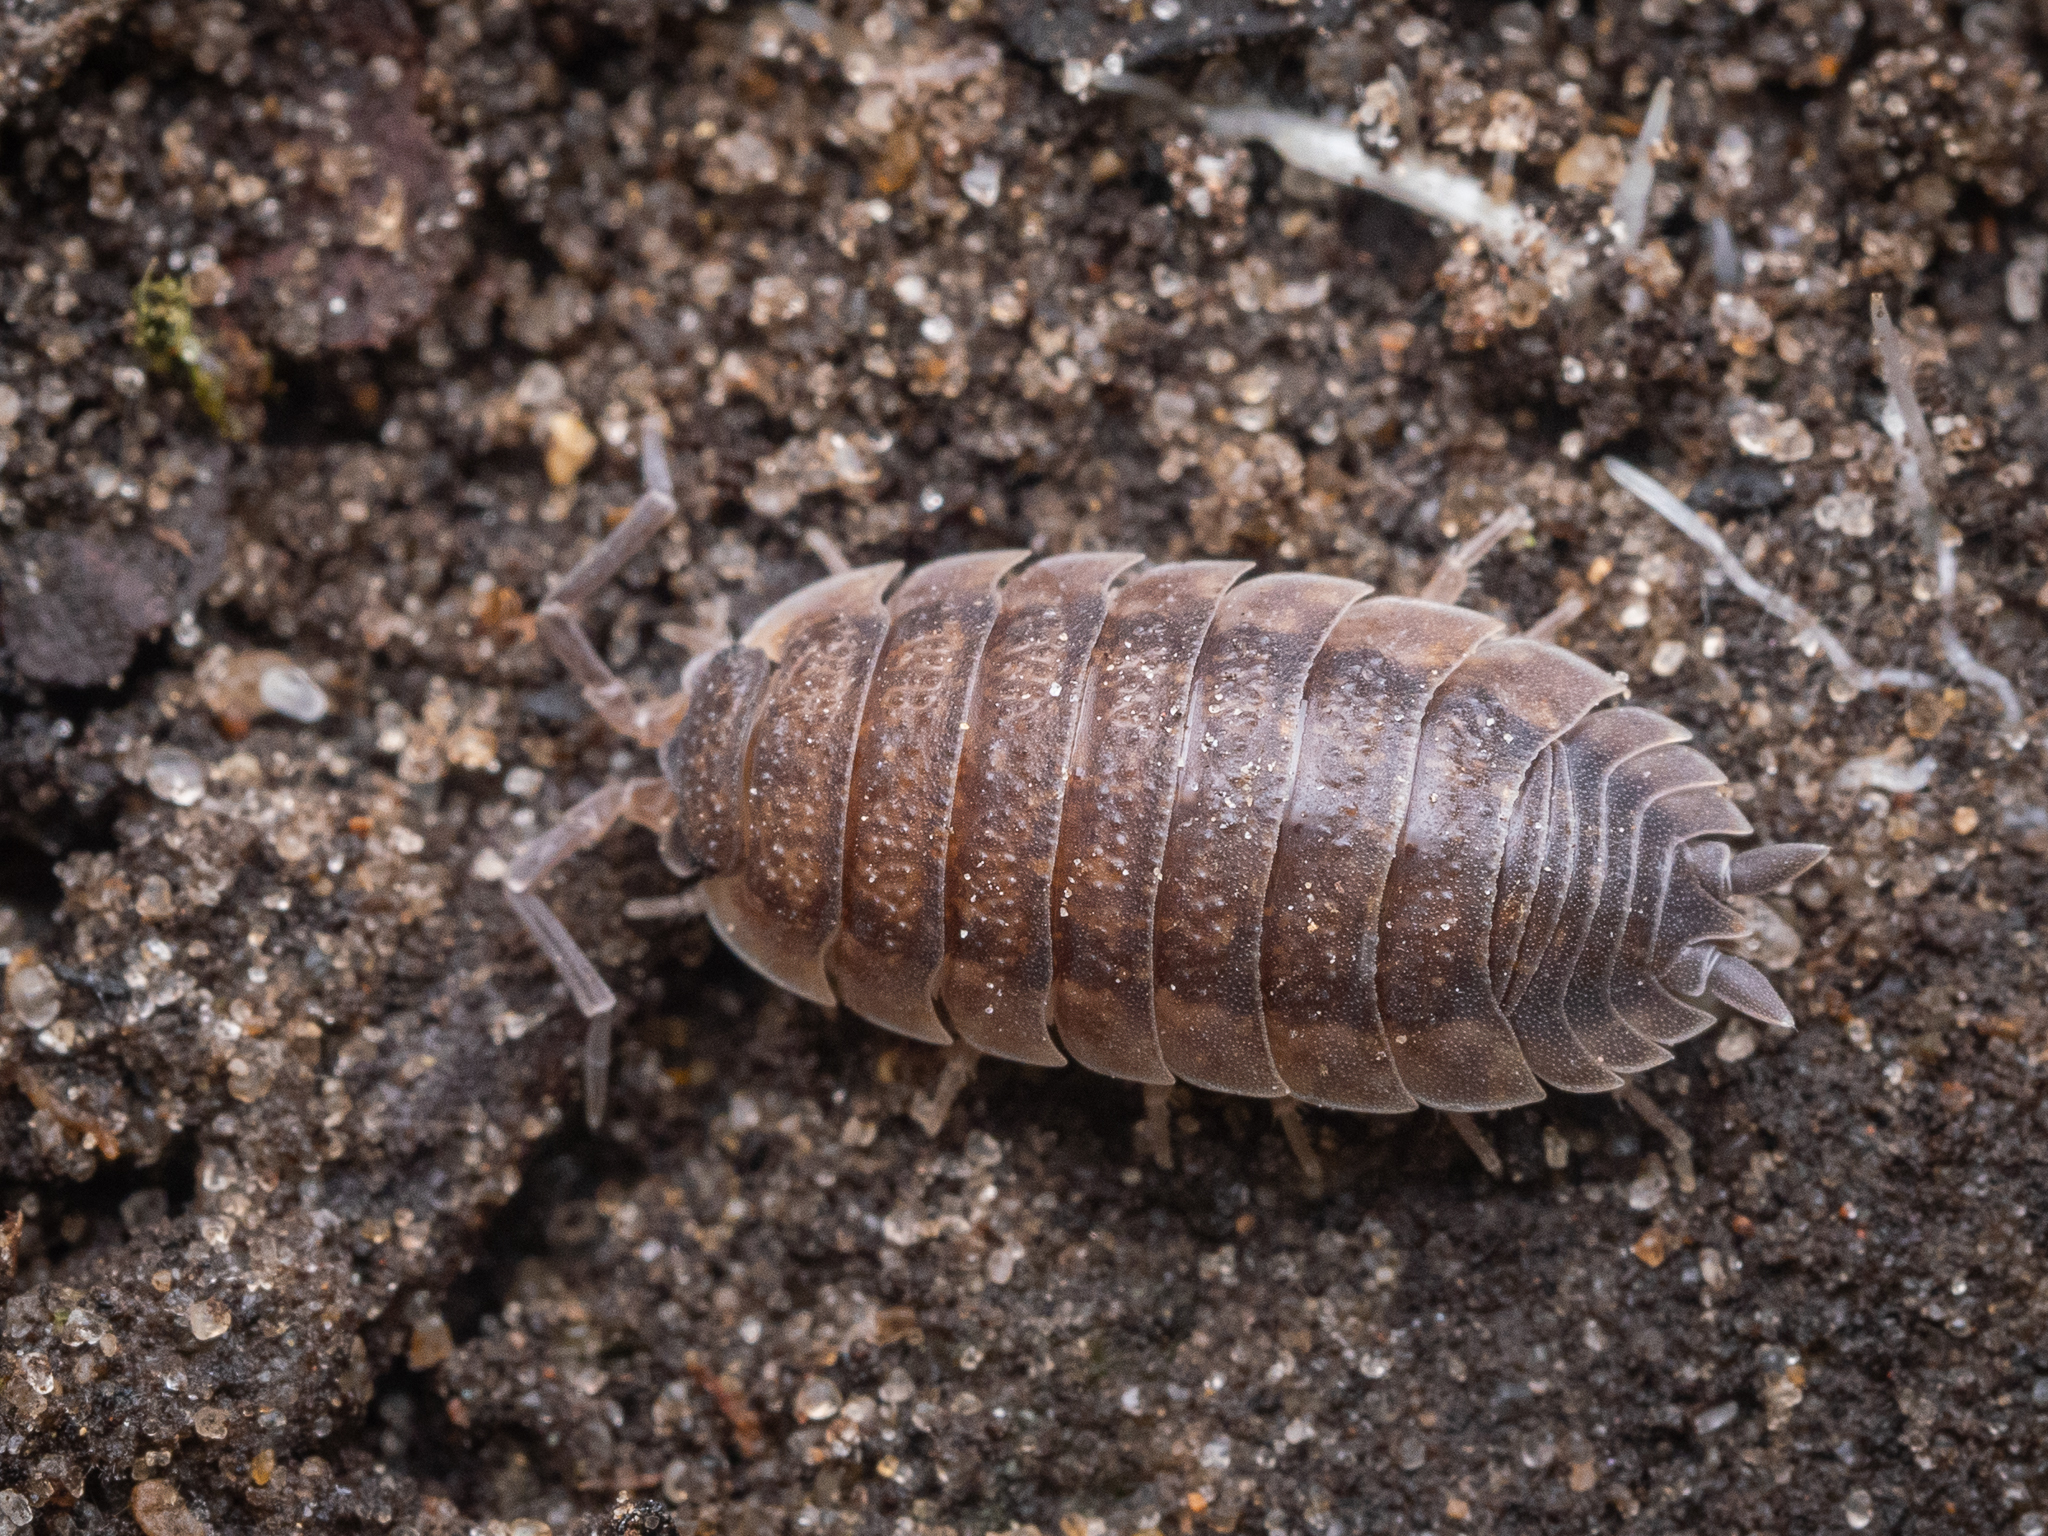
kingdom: Animalia
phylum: Arthropoda
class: Malacostraca
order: Isopoda
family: Porcellionidae
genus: Porcellio
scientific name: Porcellio scaber
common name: Common rough woodlouse
